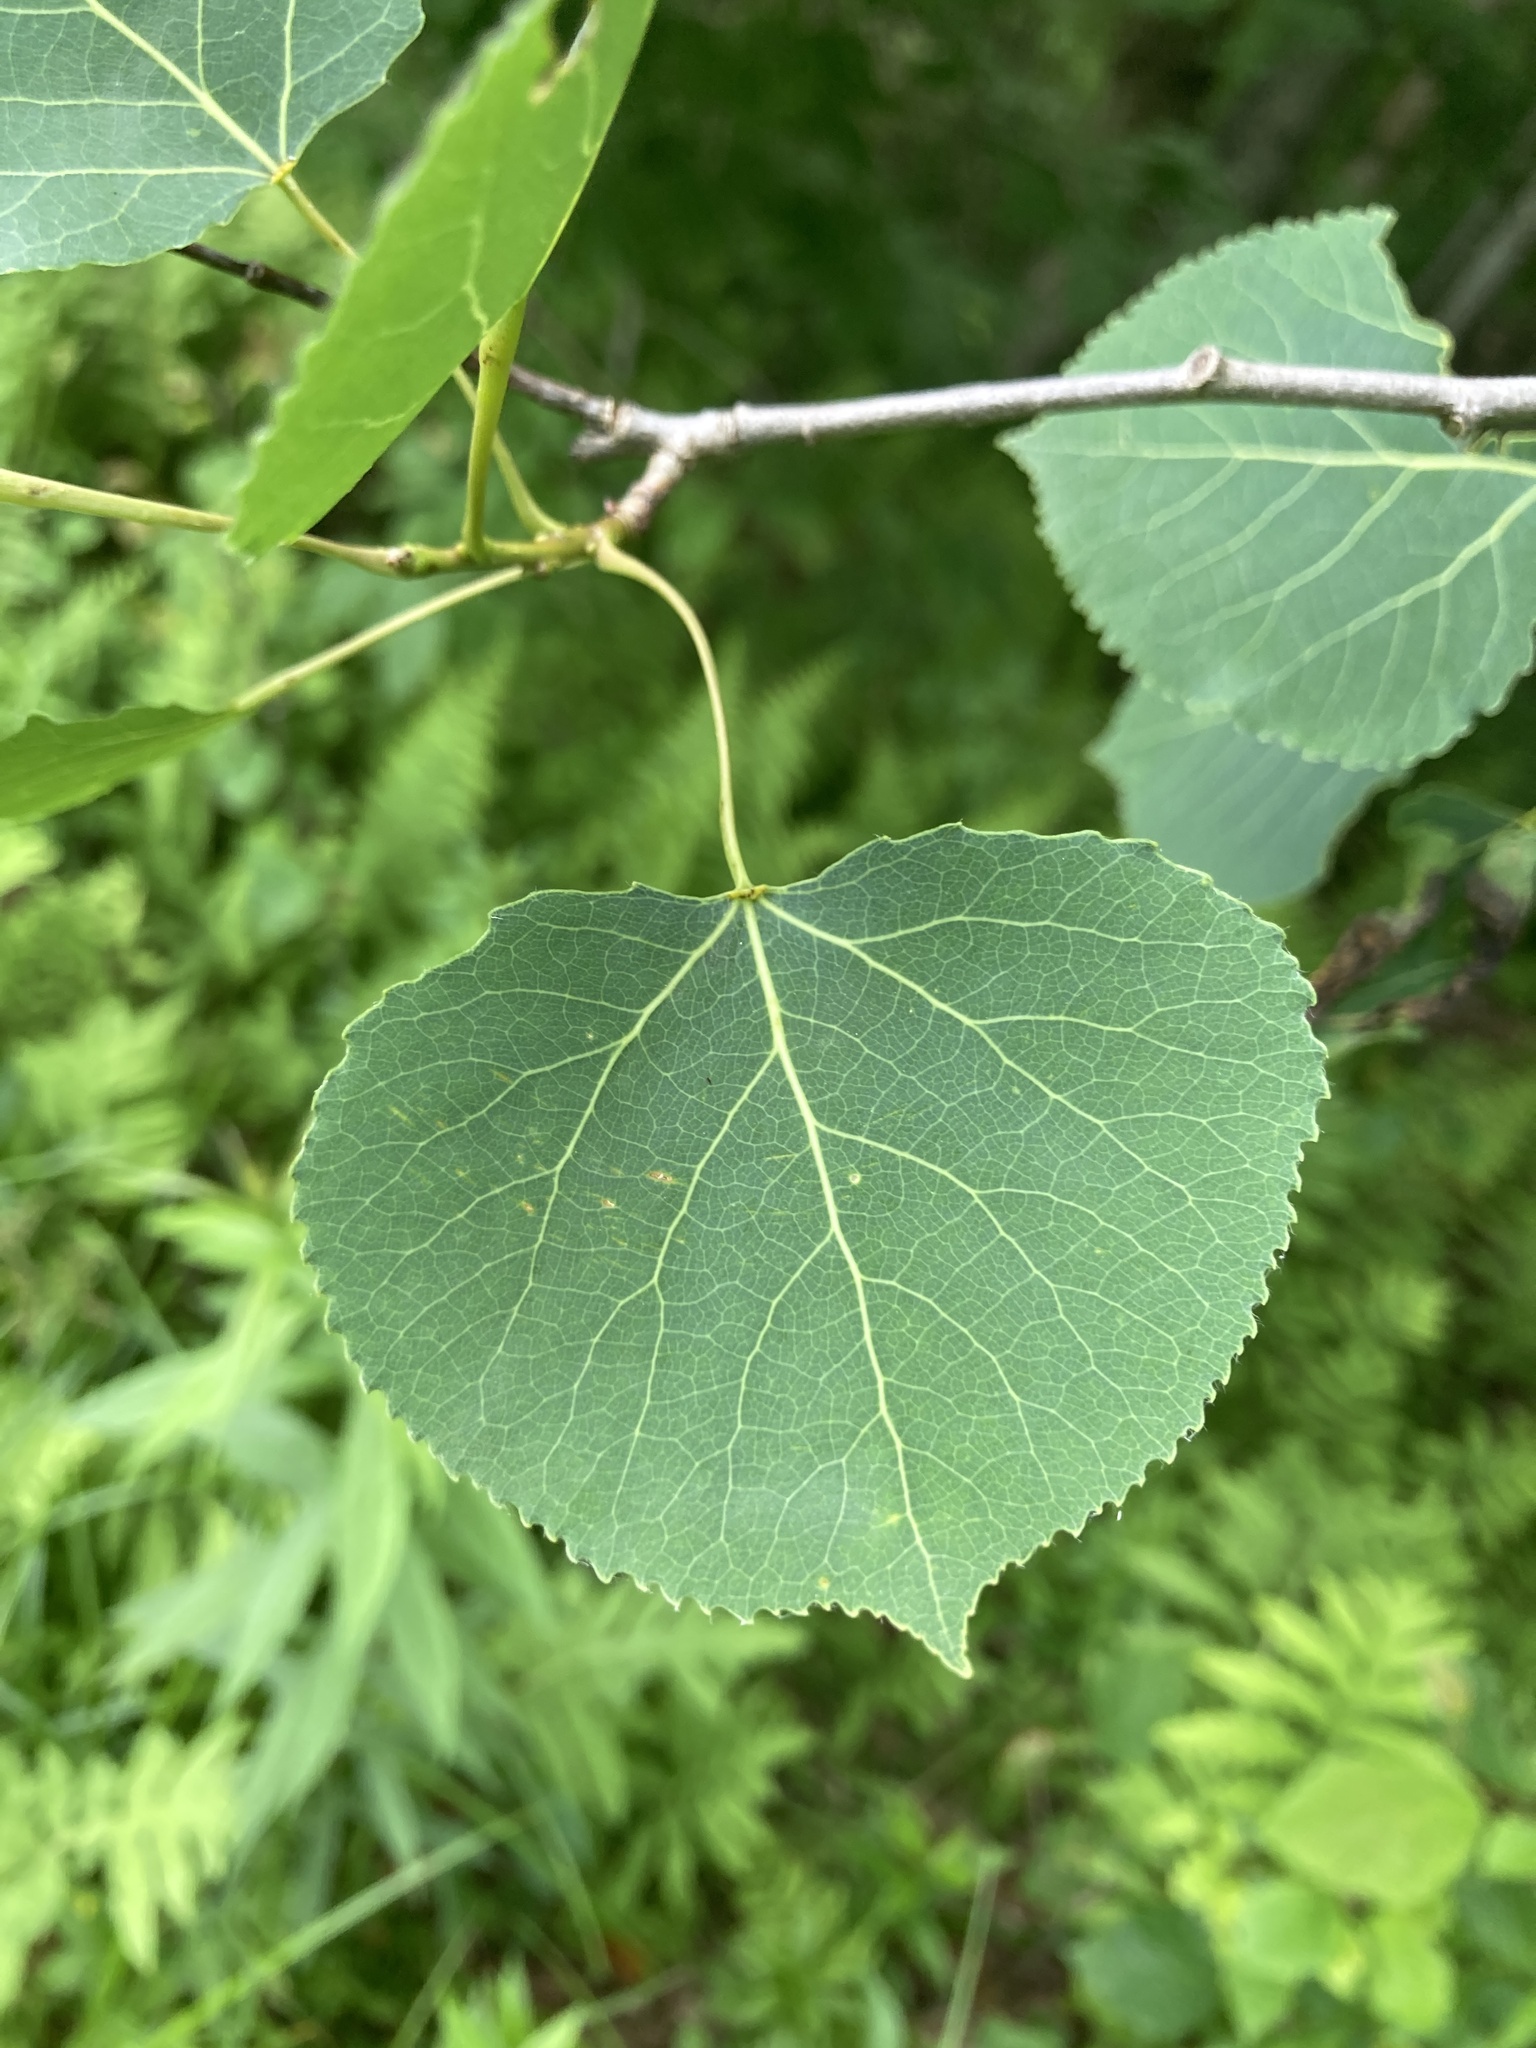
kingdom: Plantae
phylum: Tracheophyta
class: Magnoliopsida
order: Malpighiales
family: Salicaceae
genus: Populus
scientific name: Populus tremuloides
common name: Quaking aspen
